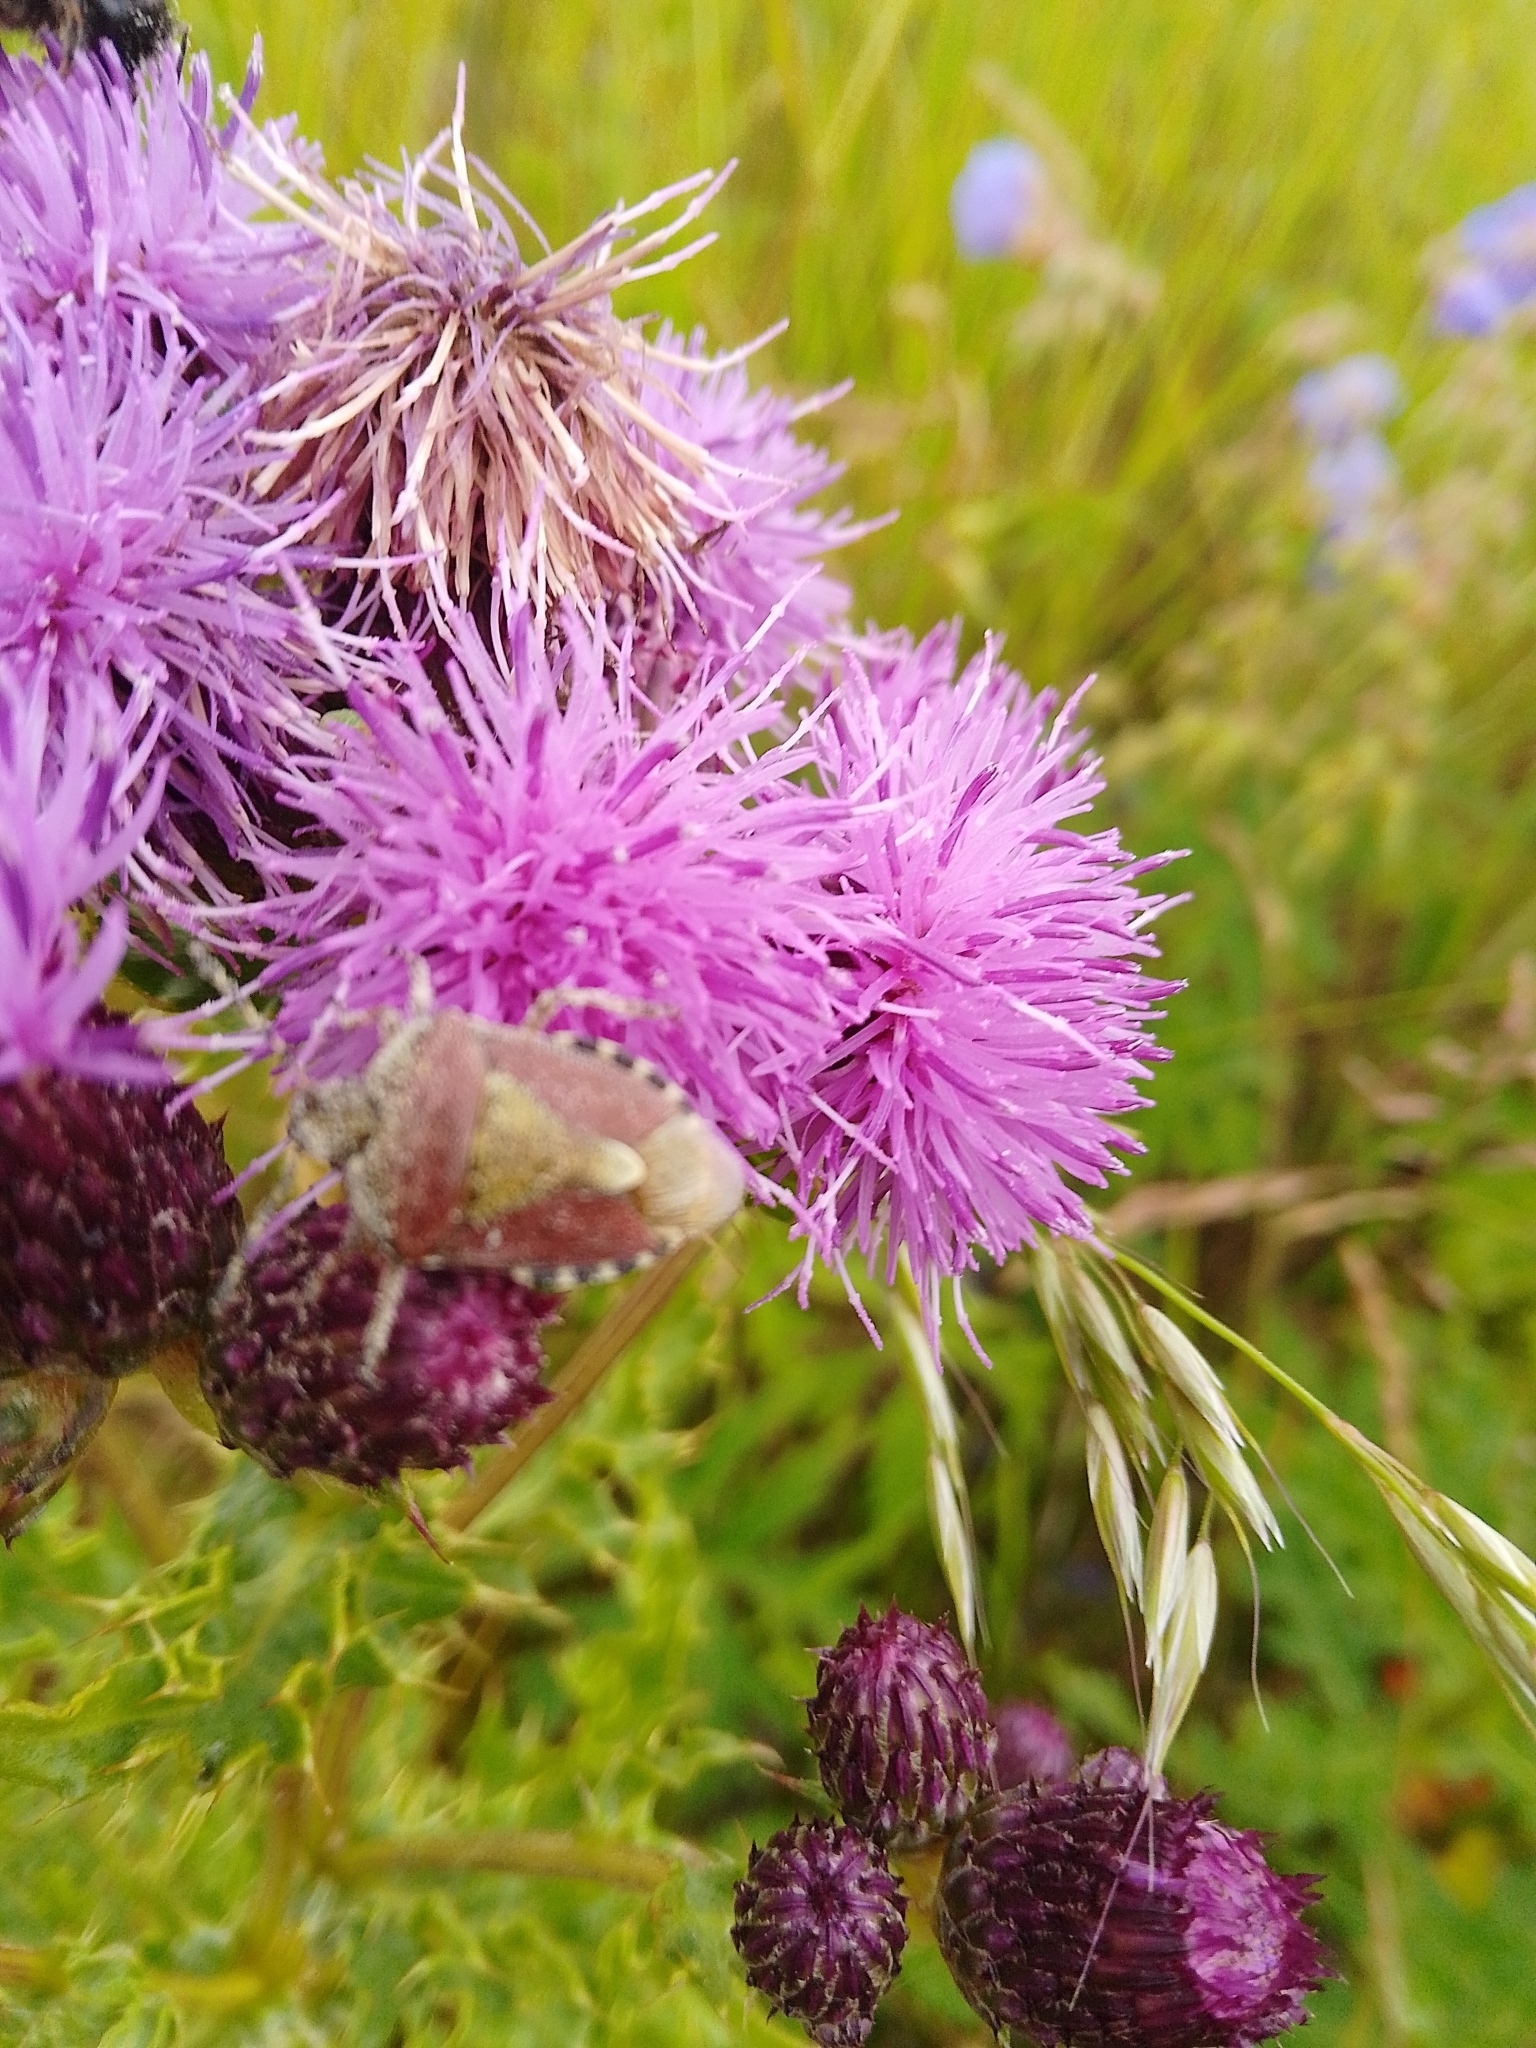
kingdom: Animalia
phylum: Arthropoda
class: Insecta
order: Hemiptera
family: Pentatomidae
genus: Dolycoris
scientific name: Dolycoris baccarum
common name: Sloe bug
